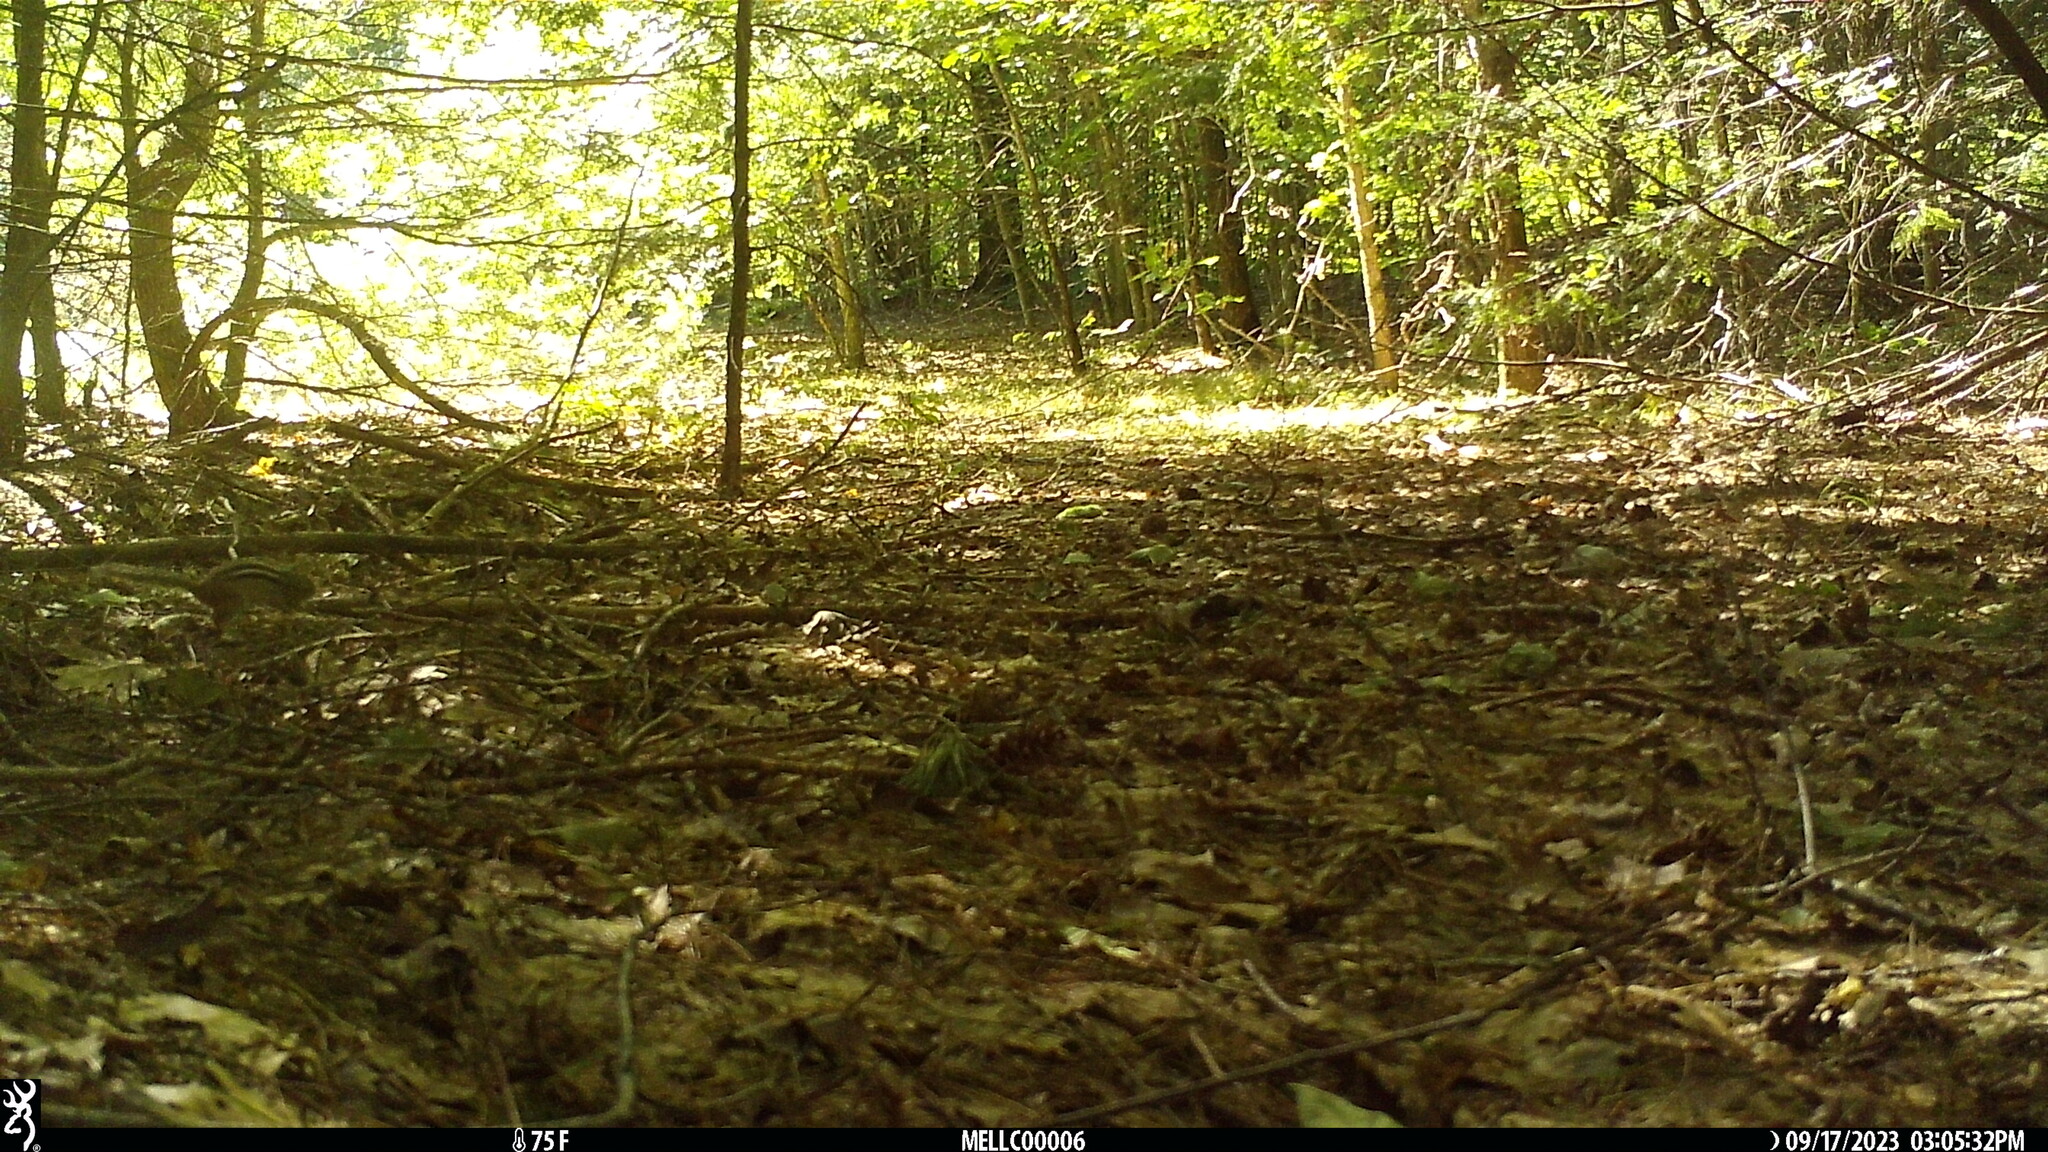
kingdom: Animalia
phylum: Chordata
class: Mammalia
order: Rodentia
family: Sciuridae
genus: Tamias
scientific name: Tamias striatus
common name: Eastern chipmunk
